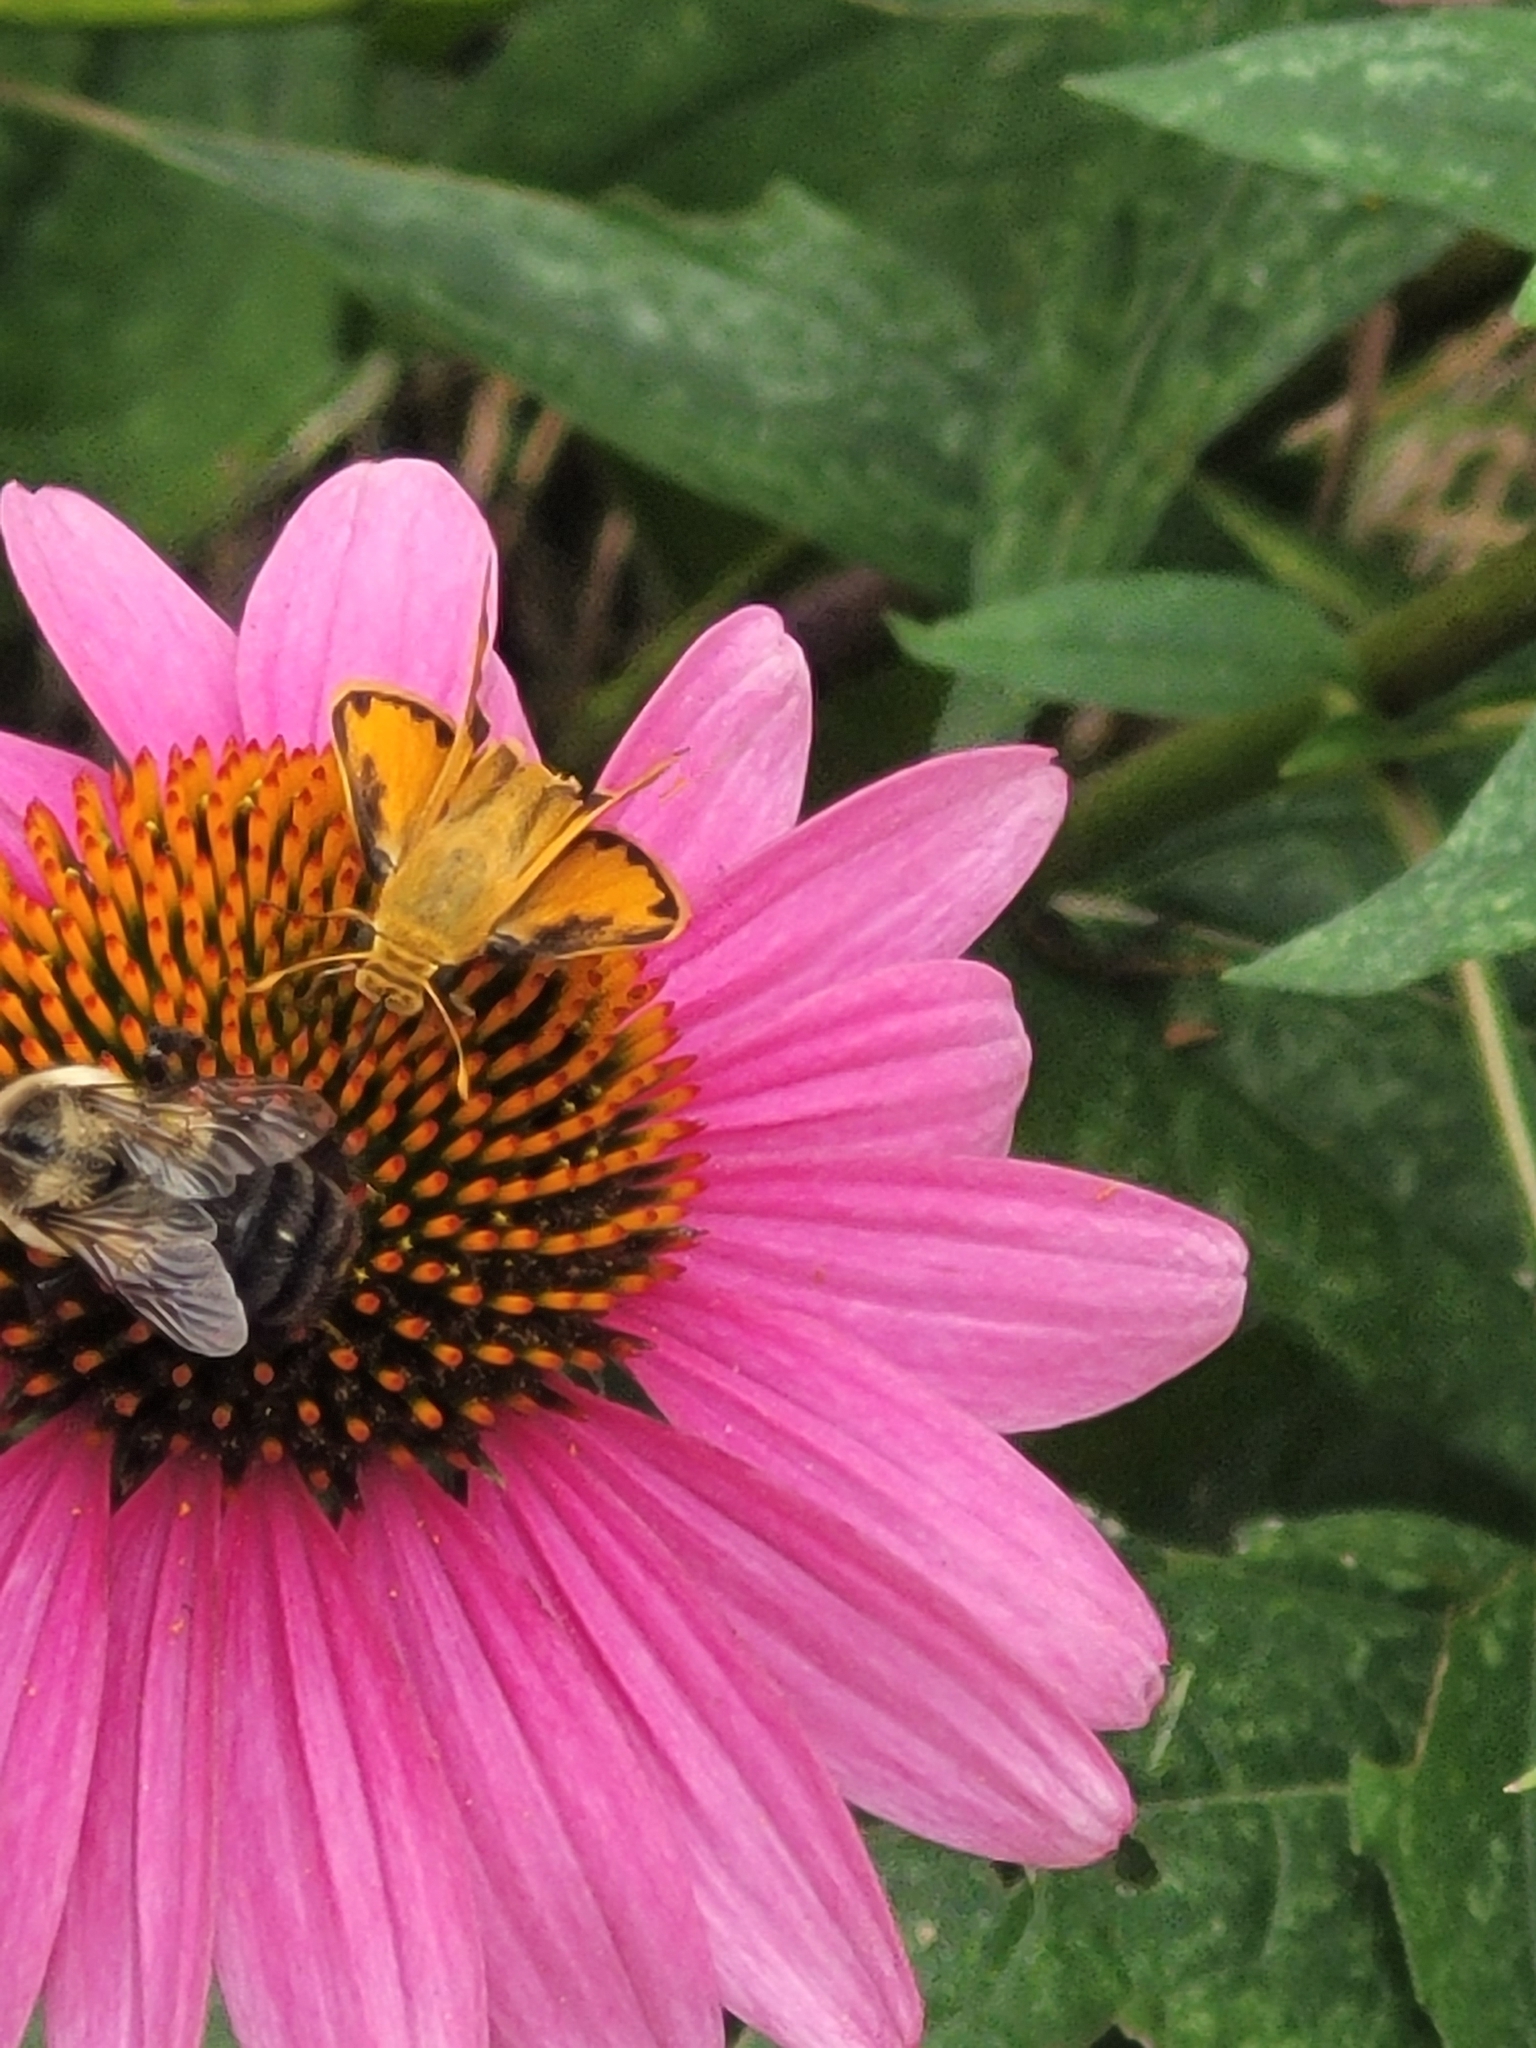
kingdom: Animalia
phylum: Arthropoda
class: Insecta
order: Lepidoptera
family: Hesperiidae
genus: Hylephila
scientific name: Hylephila phyleus
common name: Fiery skipper
